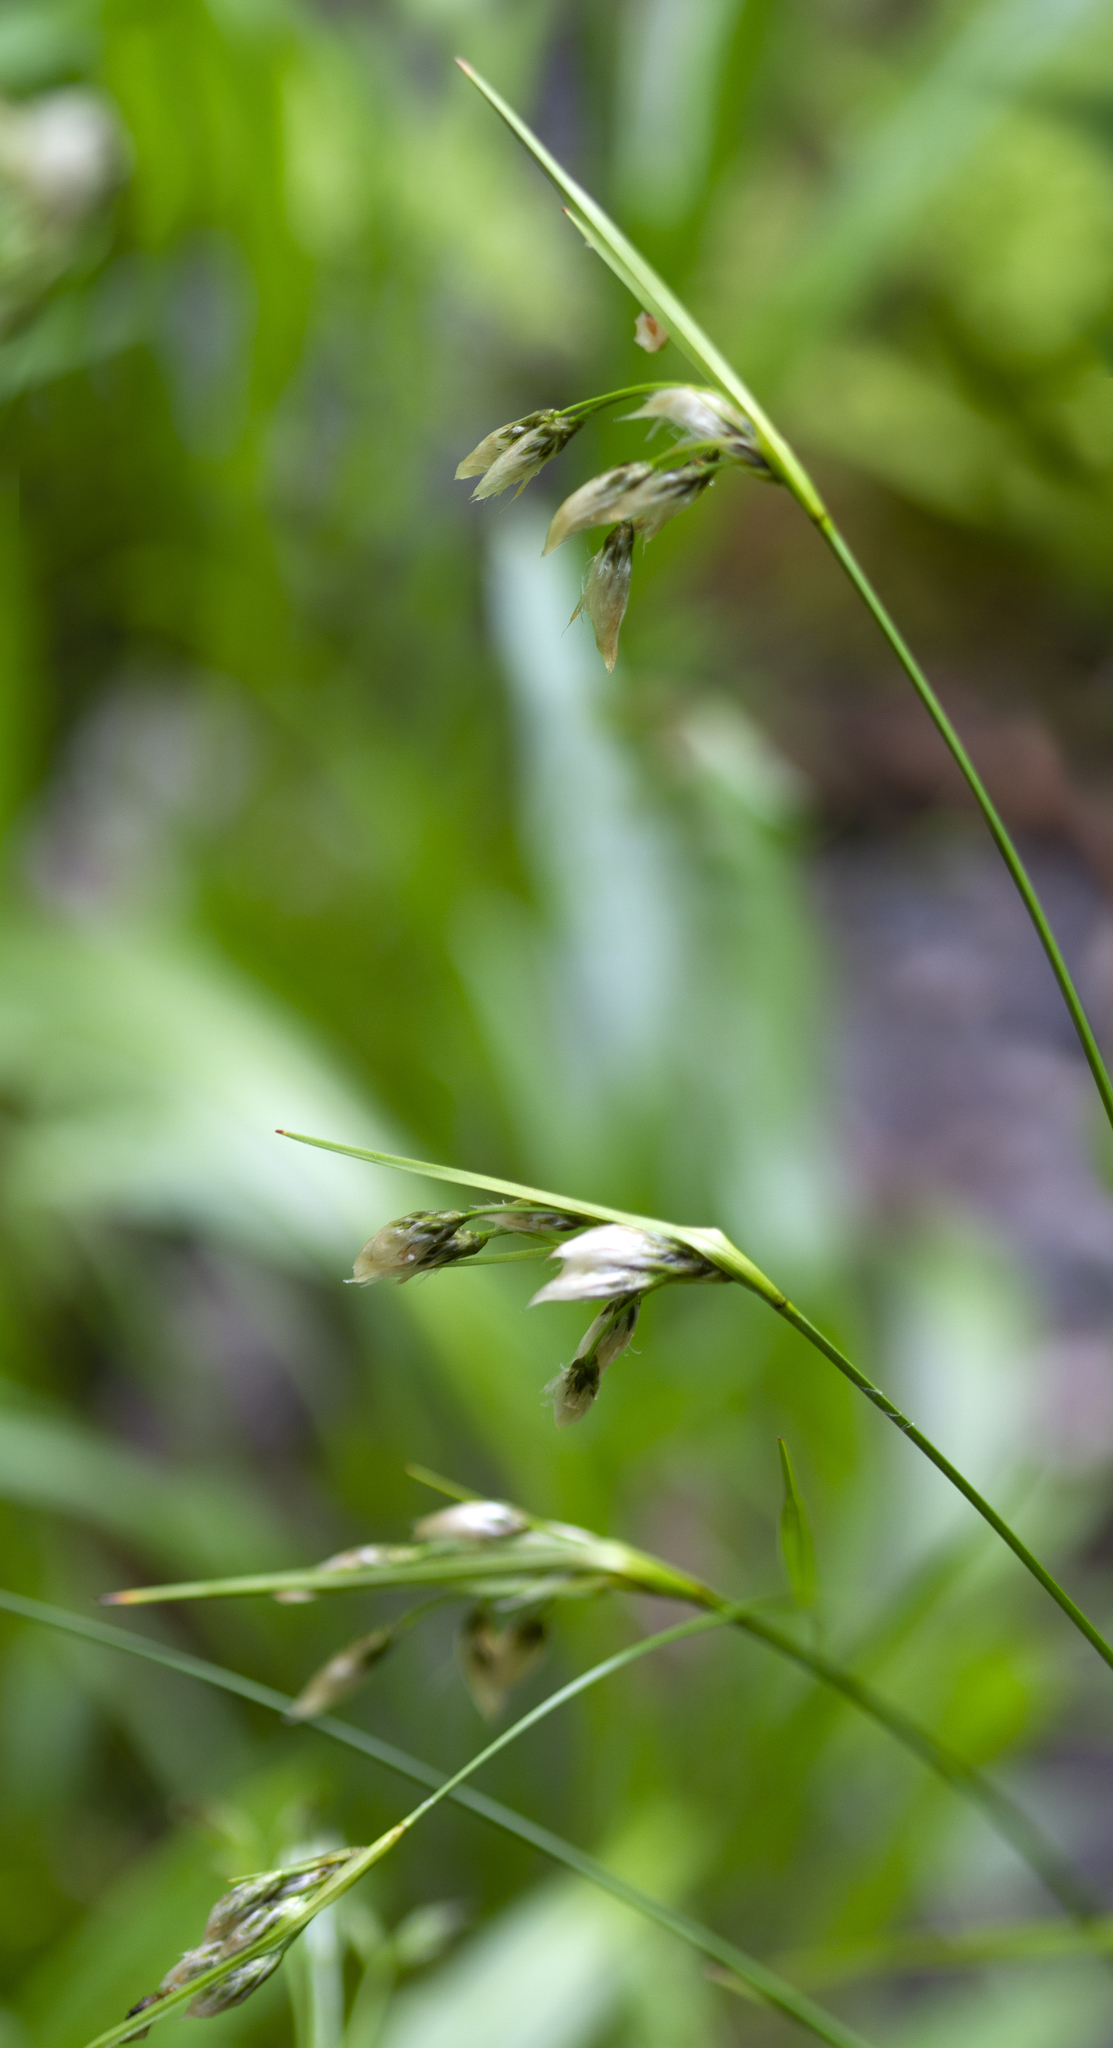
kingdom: Plantae
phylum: Tracheophyta
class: Liliopsida
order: Poales
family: Cyperaceae
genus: Eriophorum
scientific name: Eriophorum viridicarinatum
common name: Green-keeled cottongrass
